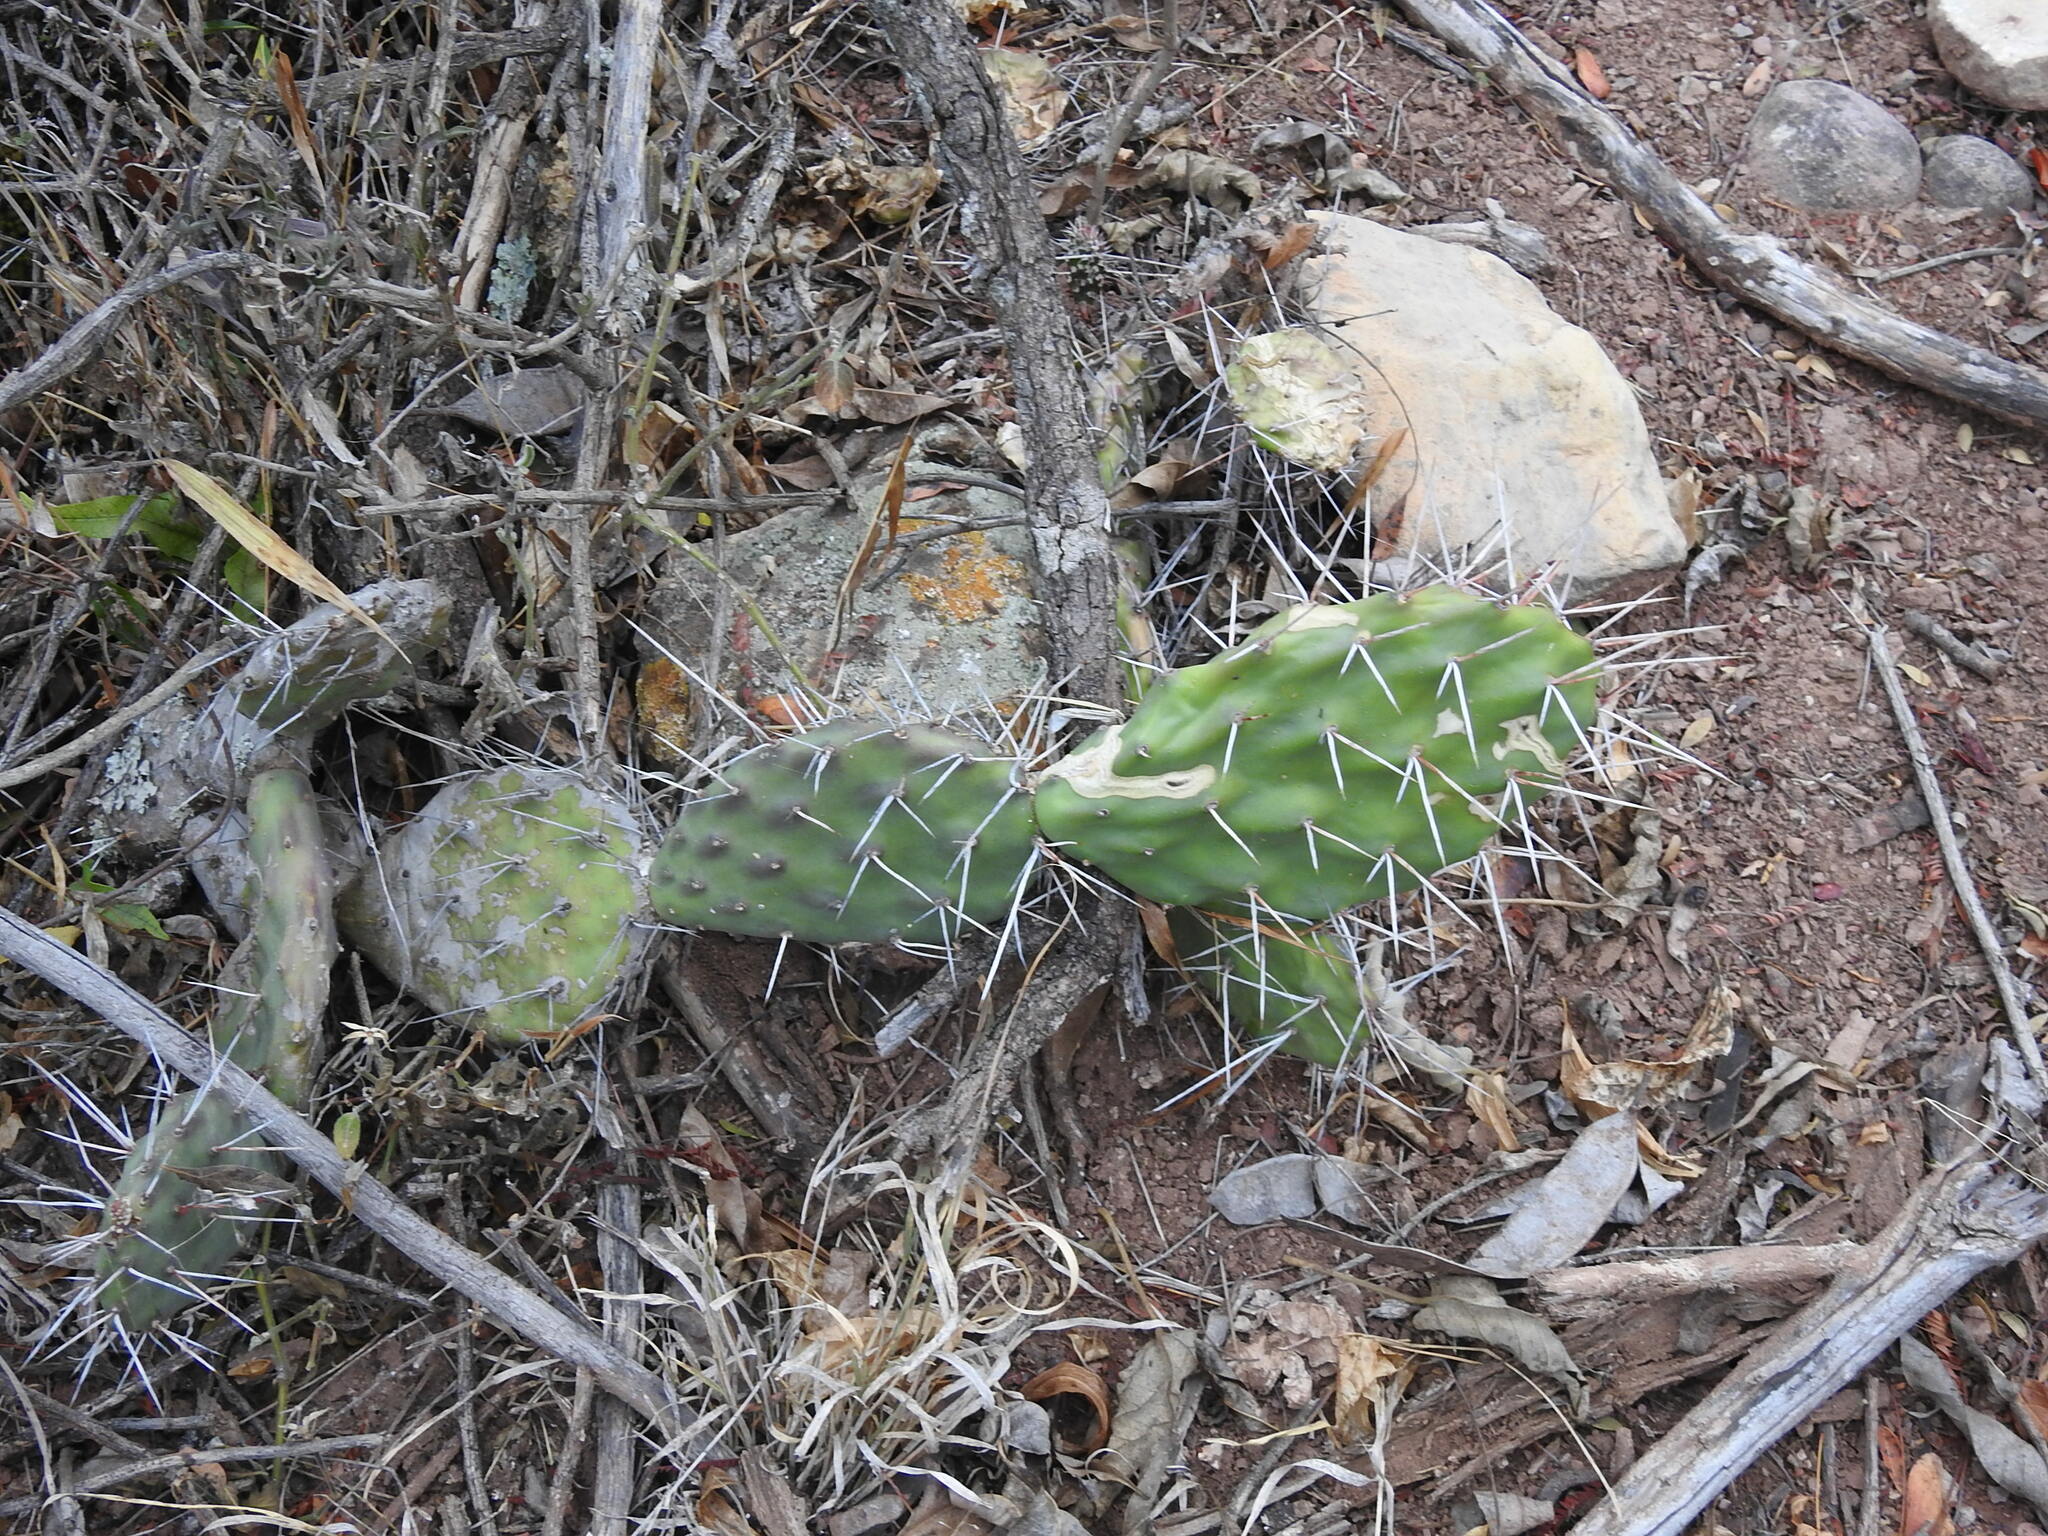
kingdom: Plantae
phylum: Tracheophyta
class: Magnoliopsida
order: Caryophyllales
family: Cactaceae
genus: Opuntia
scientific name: Opuntia sulphurea
